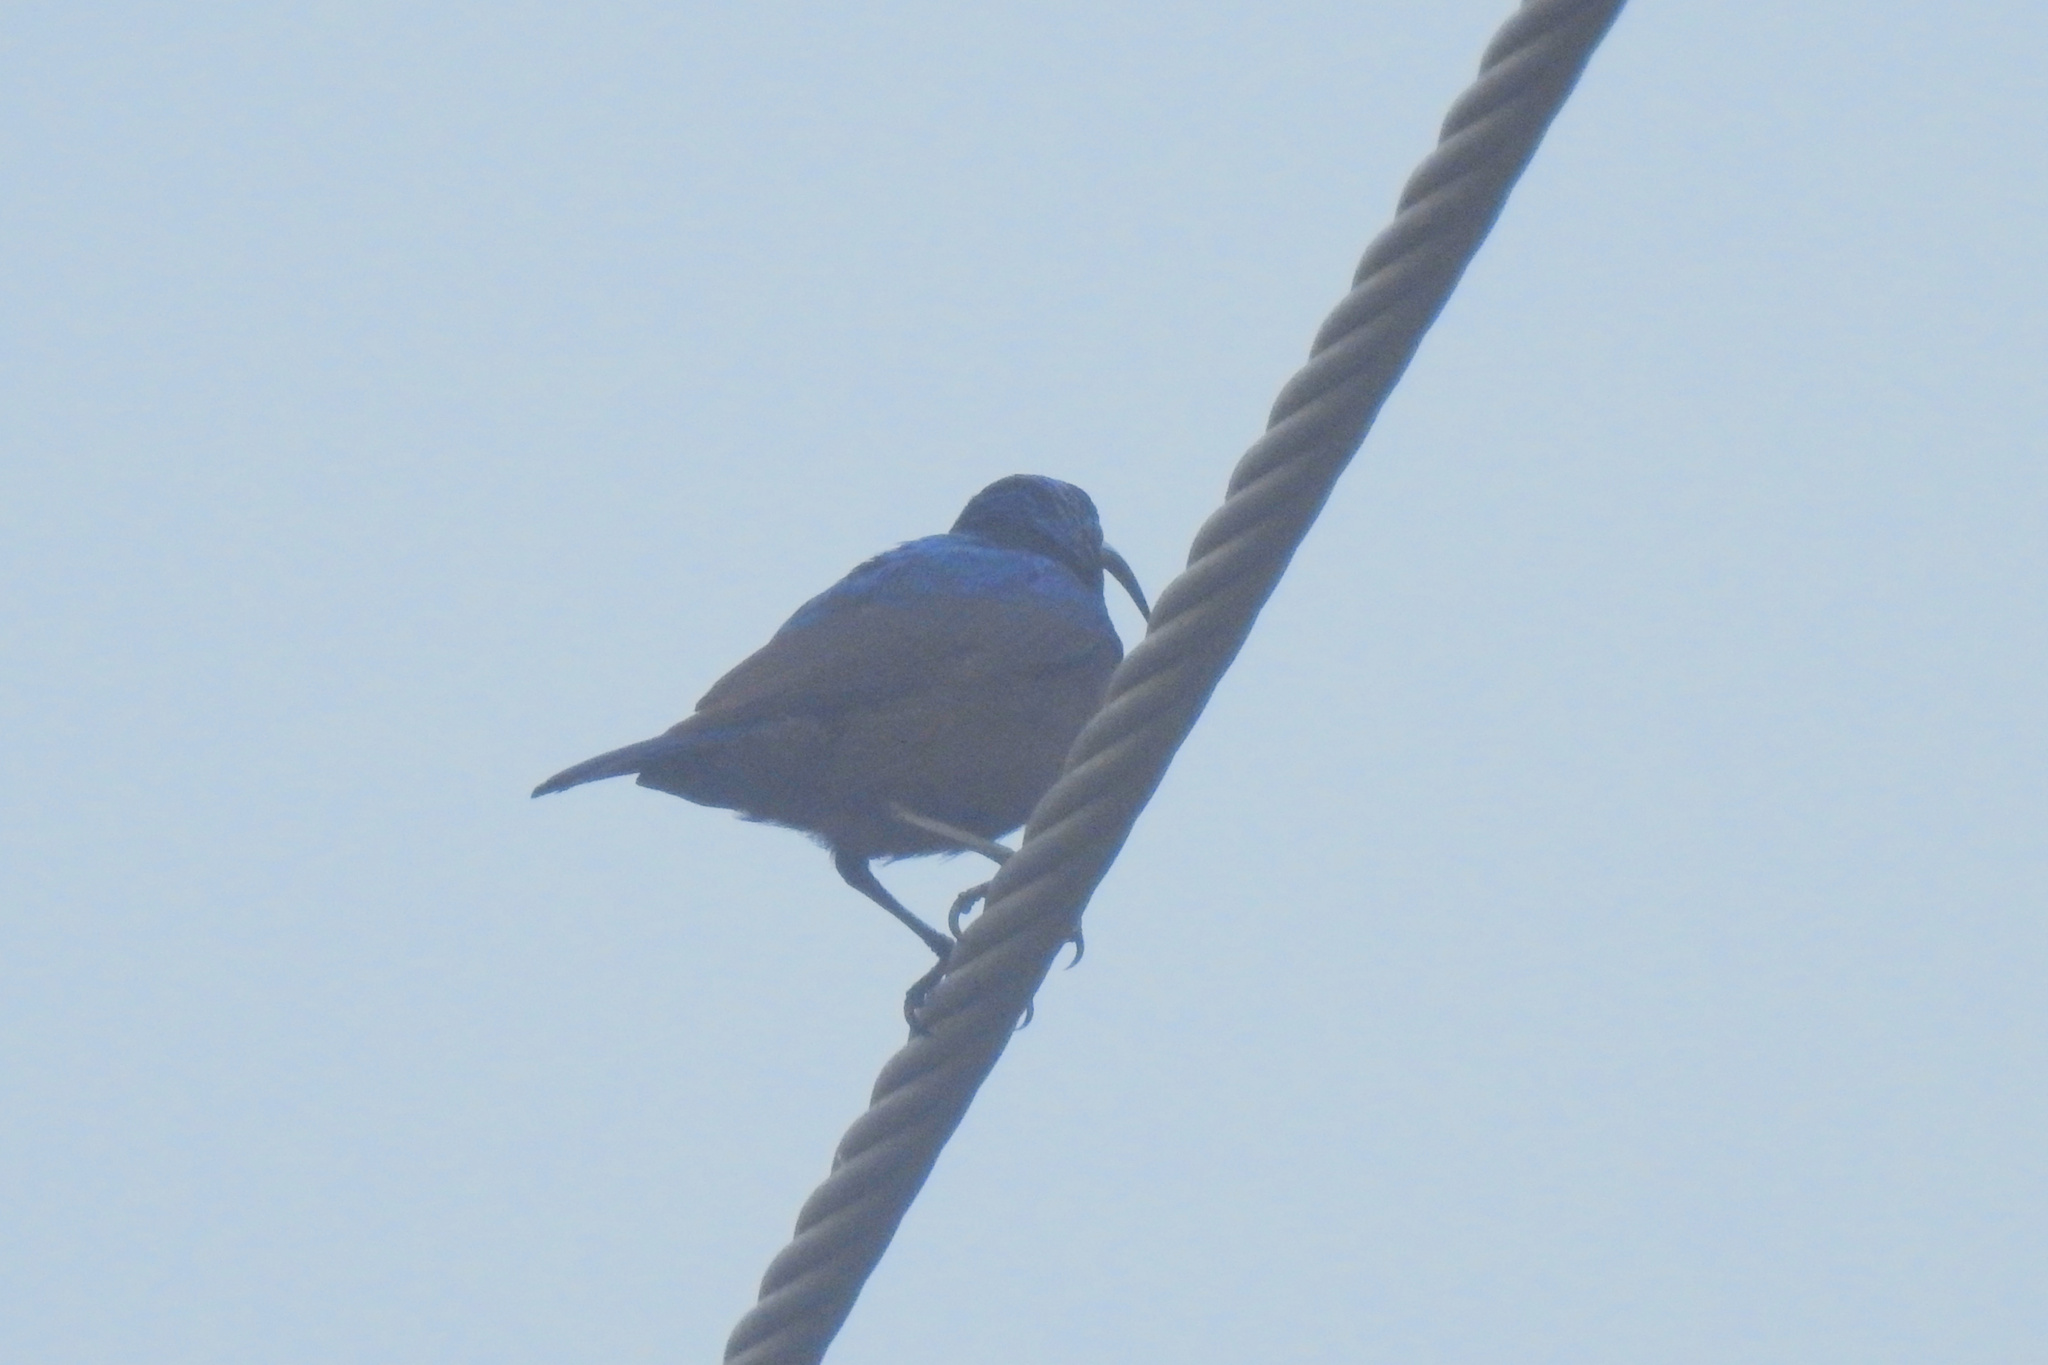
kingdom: Animalia
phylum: Chordata
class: Aves
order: Passeriformes
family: Nectariniidae
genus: Cinnyris
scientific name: Cinnyris lotenius
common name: Loten's sunbird
